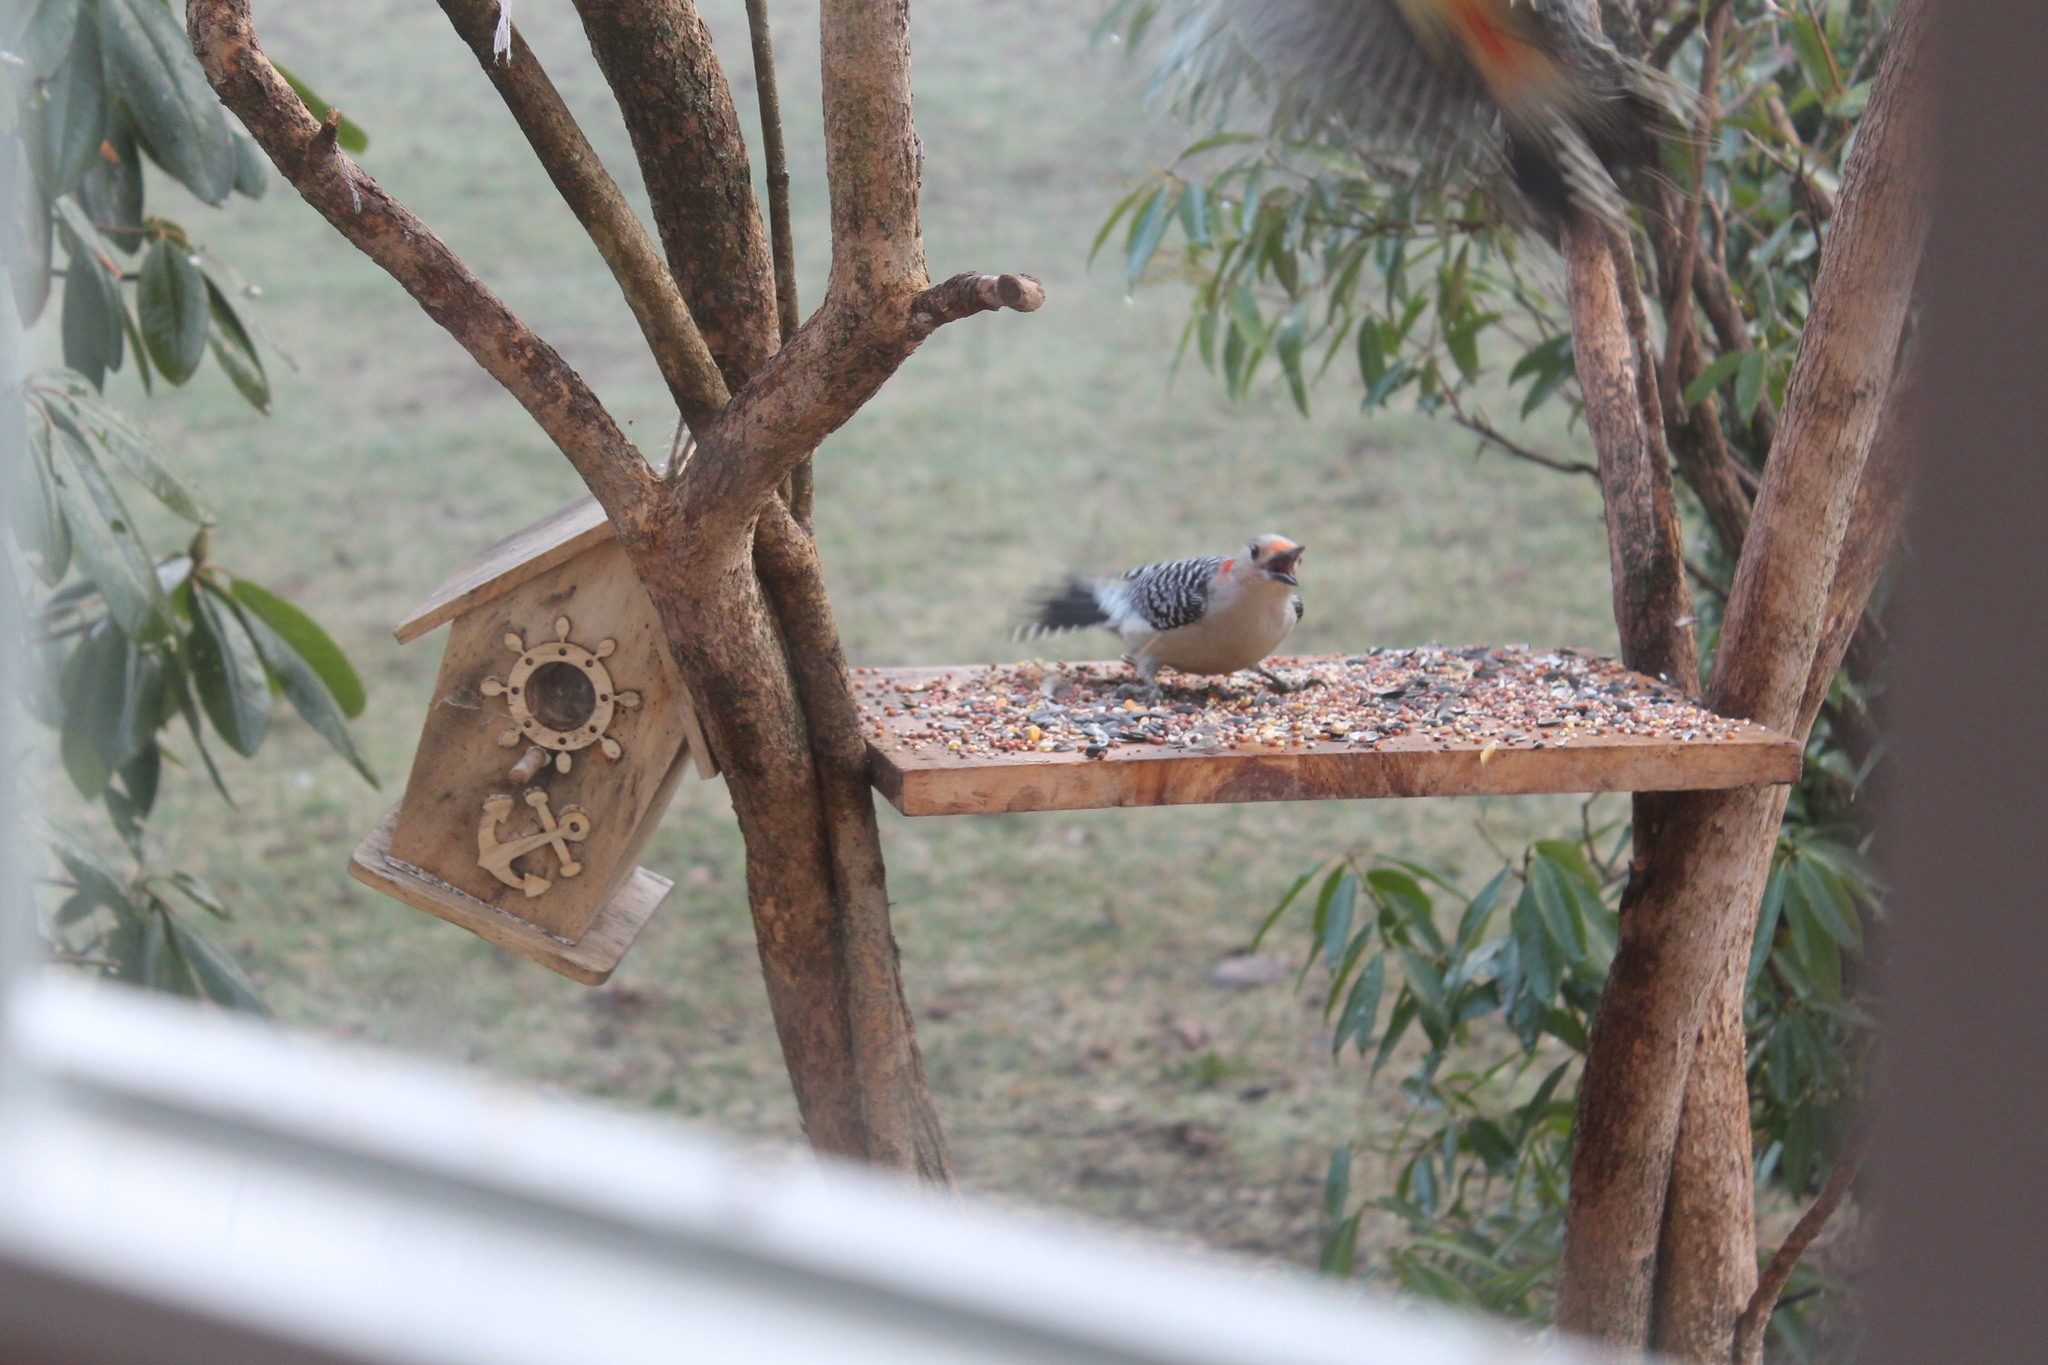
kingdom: Animalia
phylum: Chordata
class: Aves
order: Piciformes
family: Picidae
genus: Melanerpes
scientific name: Melanerpes carolinus
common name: Red-bellied woodpecker
